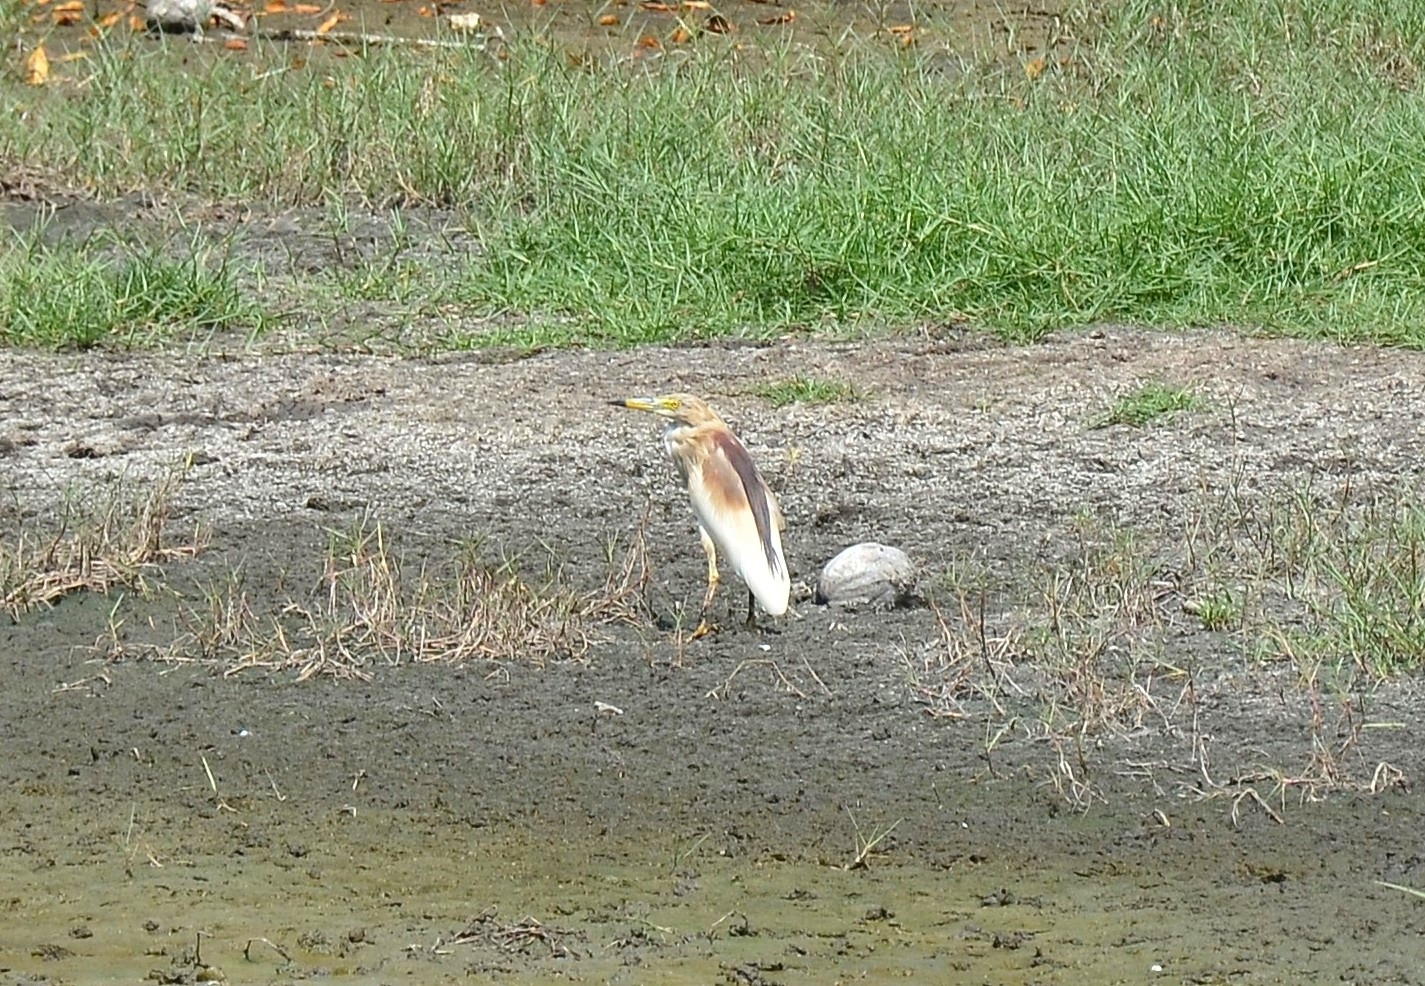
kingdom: Animalia
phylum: Chordata
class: Aves
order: Pelecaniformes
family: Ardeidae
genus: Ardeola
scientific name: Ardeola grayii
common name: Indian pond heron
